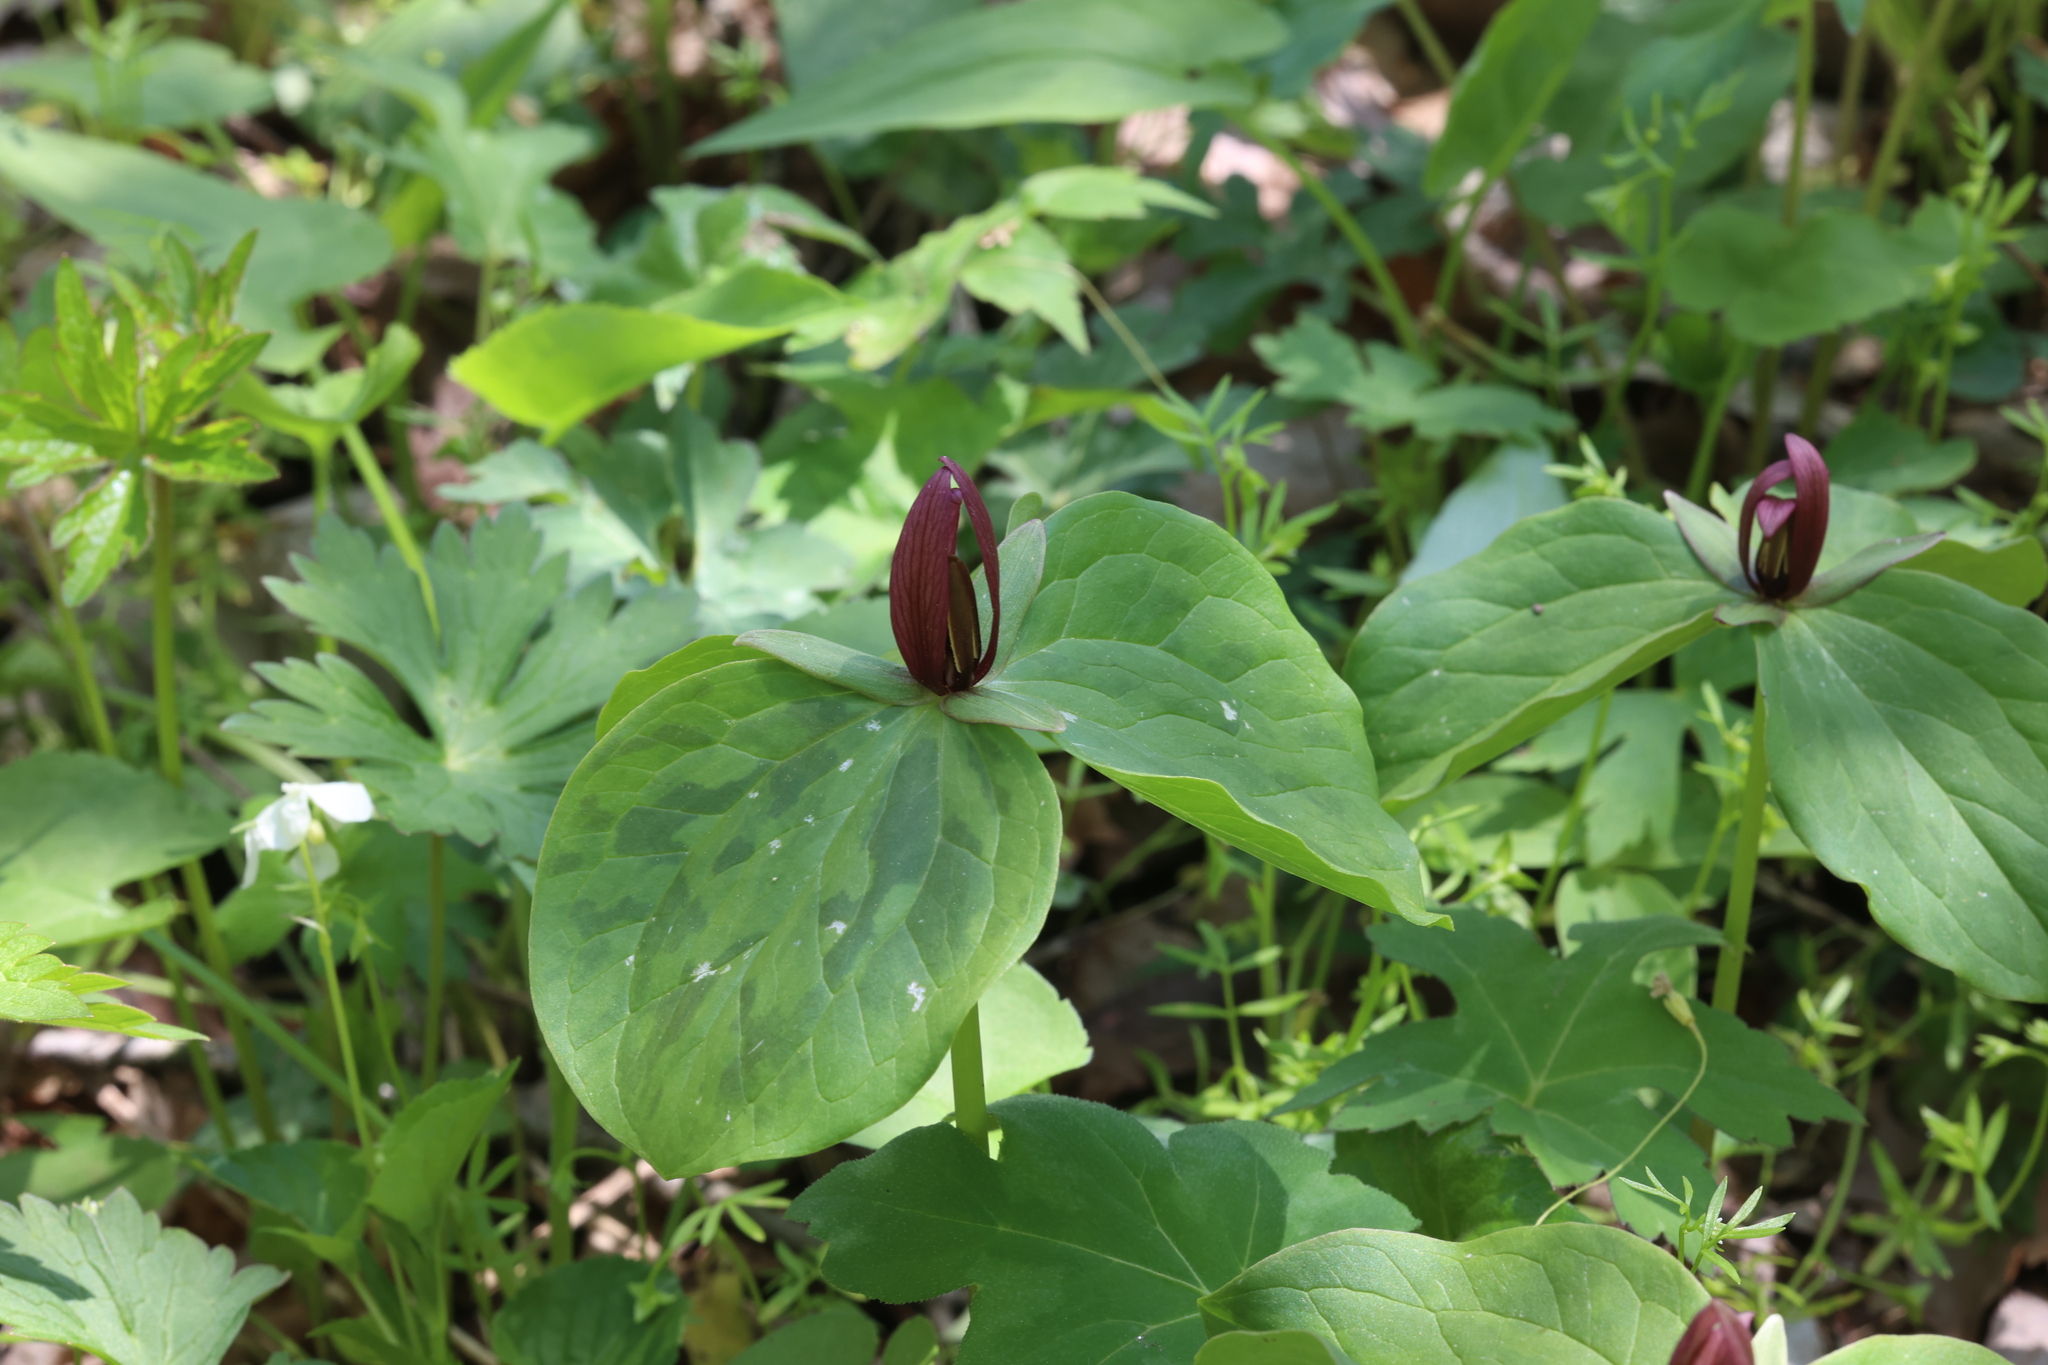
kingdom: Plantae
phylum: Tracheophyta
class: Liliopsida
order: Liliales
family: Melanthiaceae
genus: Trillium
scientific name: Trillium sessile
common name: Sessile trillium
